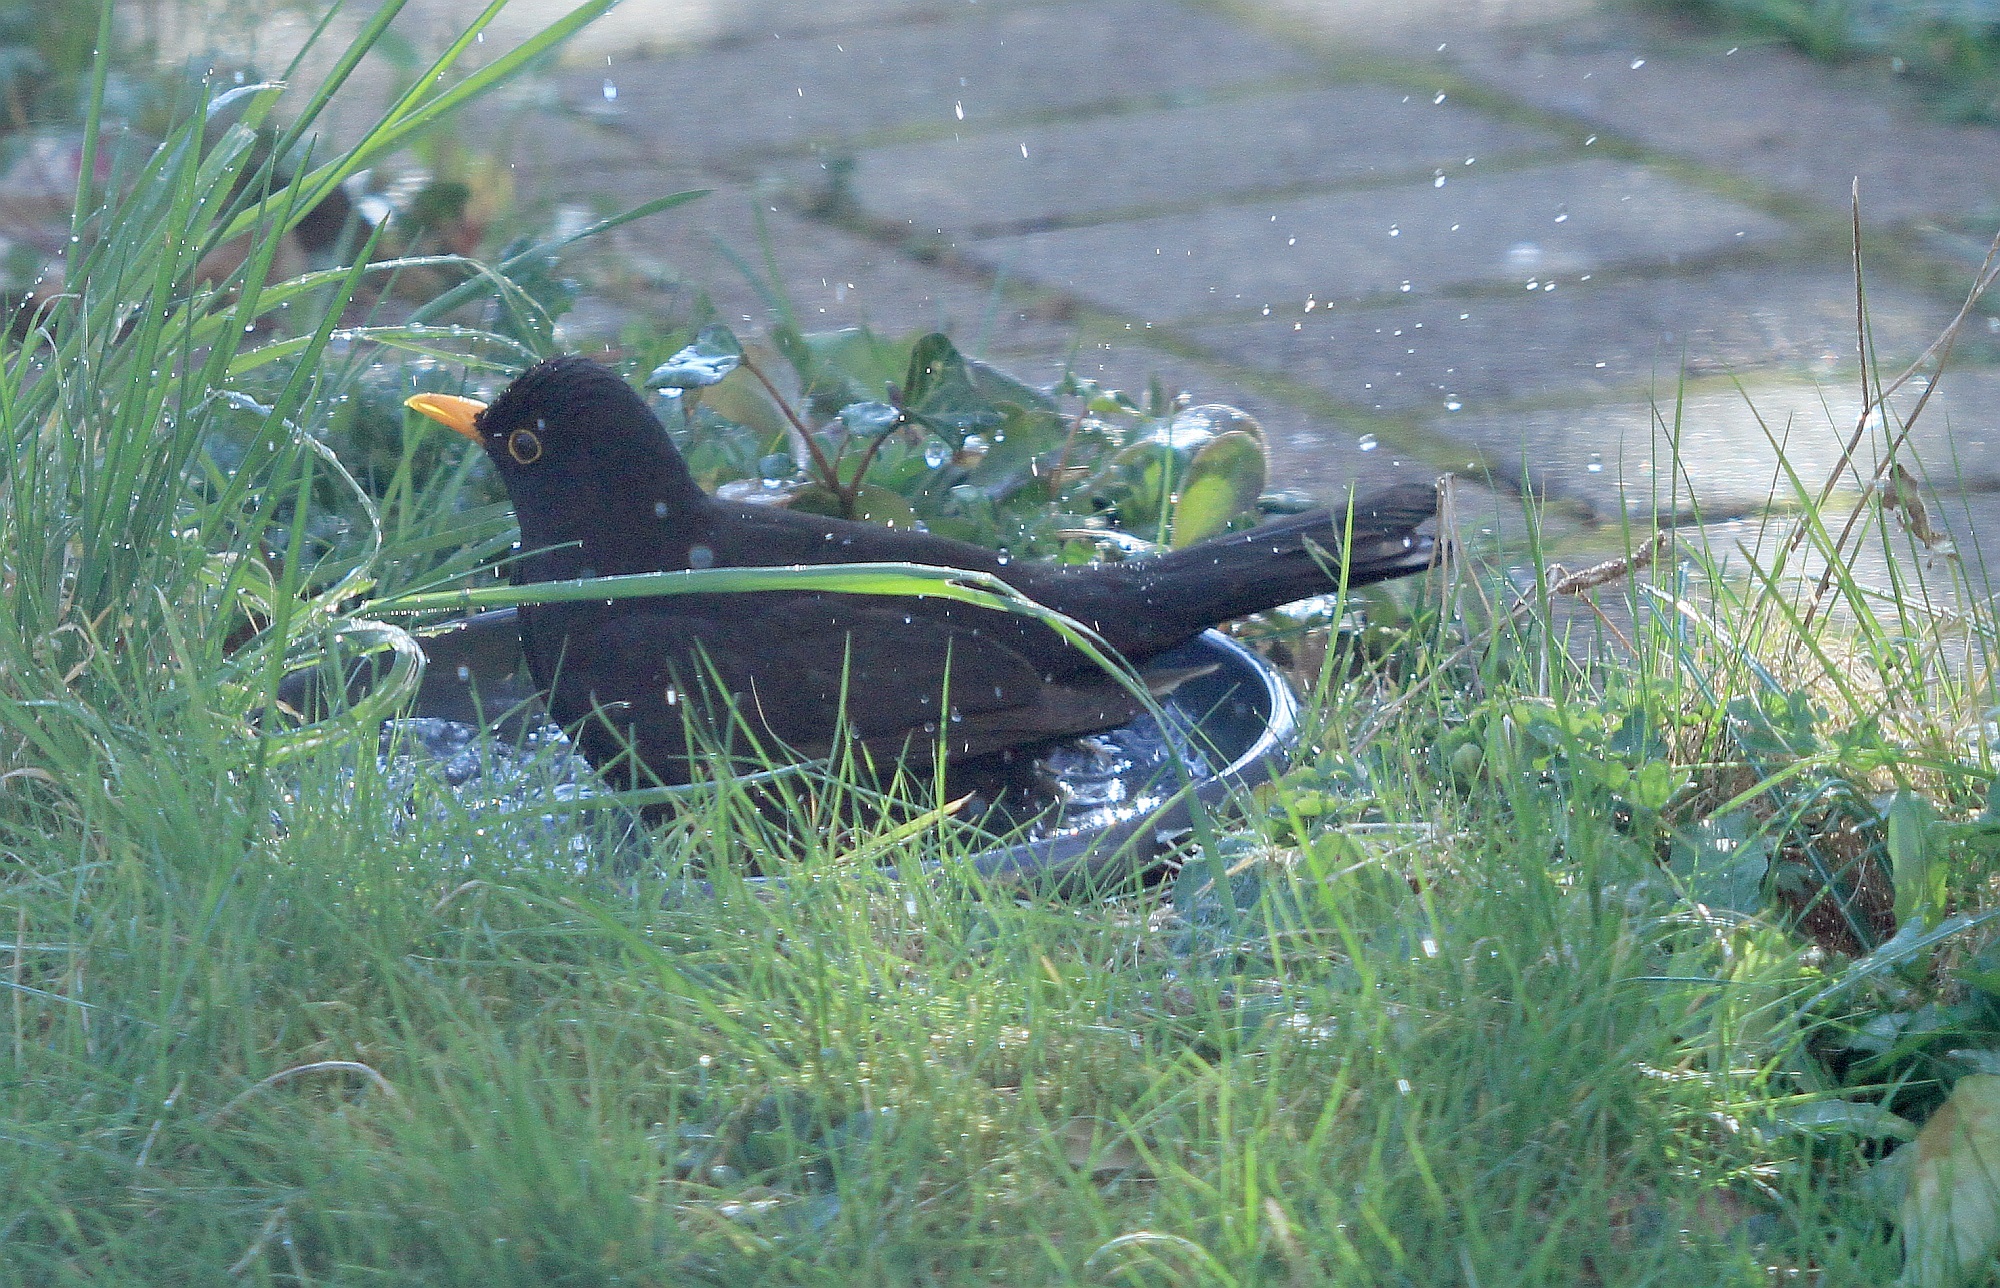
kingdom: Animalia
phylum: Chordata
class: Aves
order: Passeriformes
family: Turdidae
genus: Turdus
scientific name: Turdus merula
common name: Common blackbird
